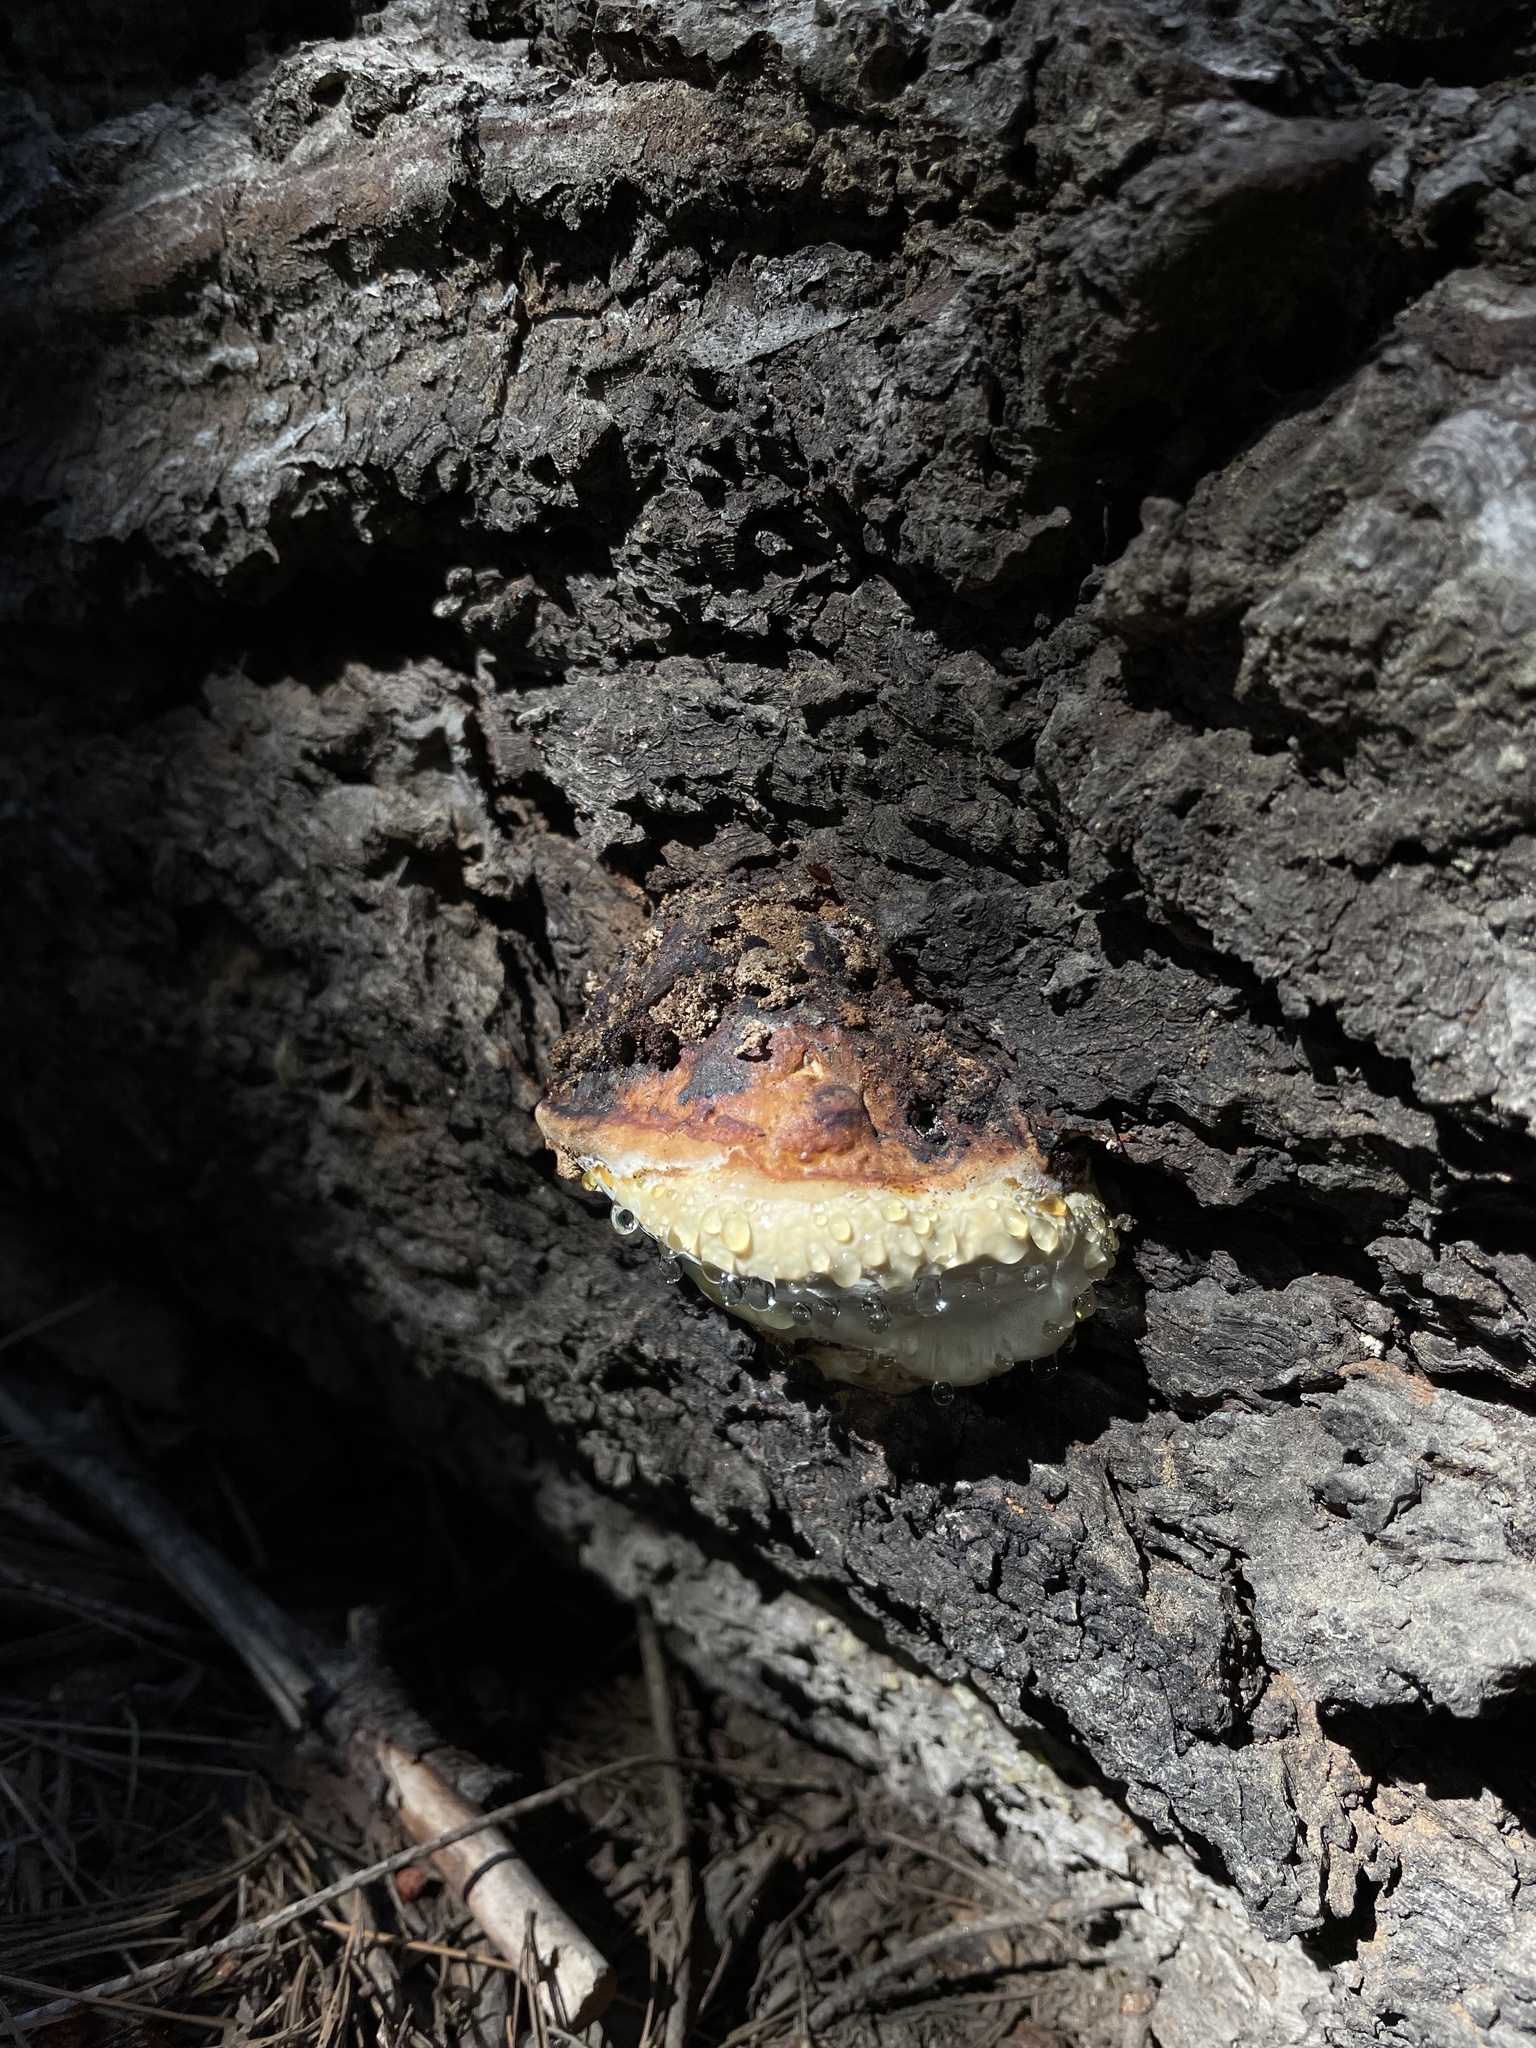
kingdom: Fungi
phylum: Basidiomycota
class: Agaricomycetes
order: Polyporales
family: Fomitopsidaceae
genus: Fomitopsis
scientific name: Fomitopsis mounceae
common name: Northern red belt
